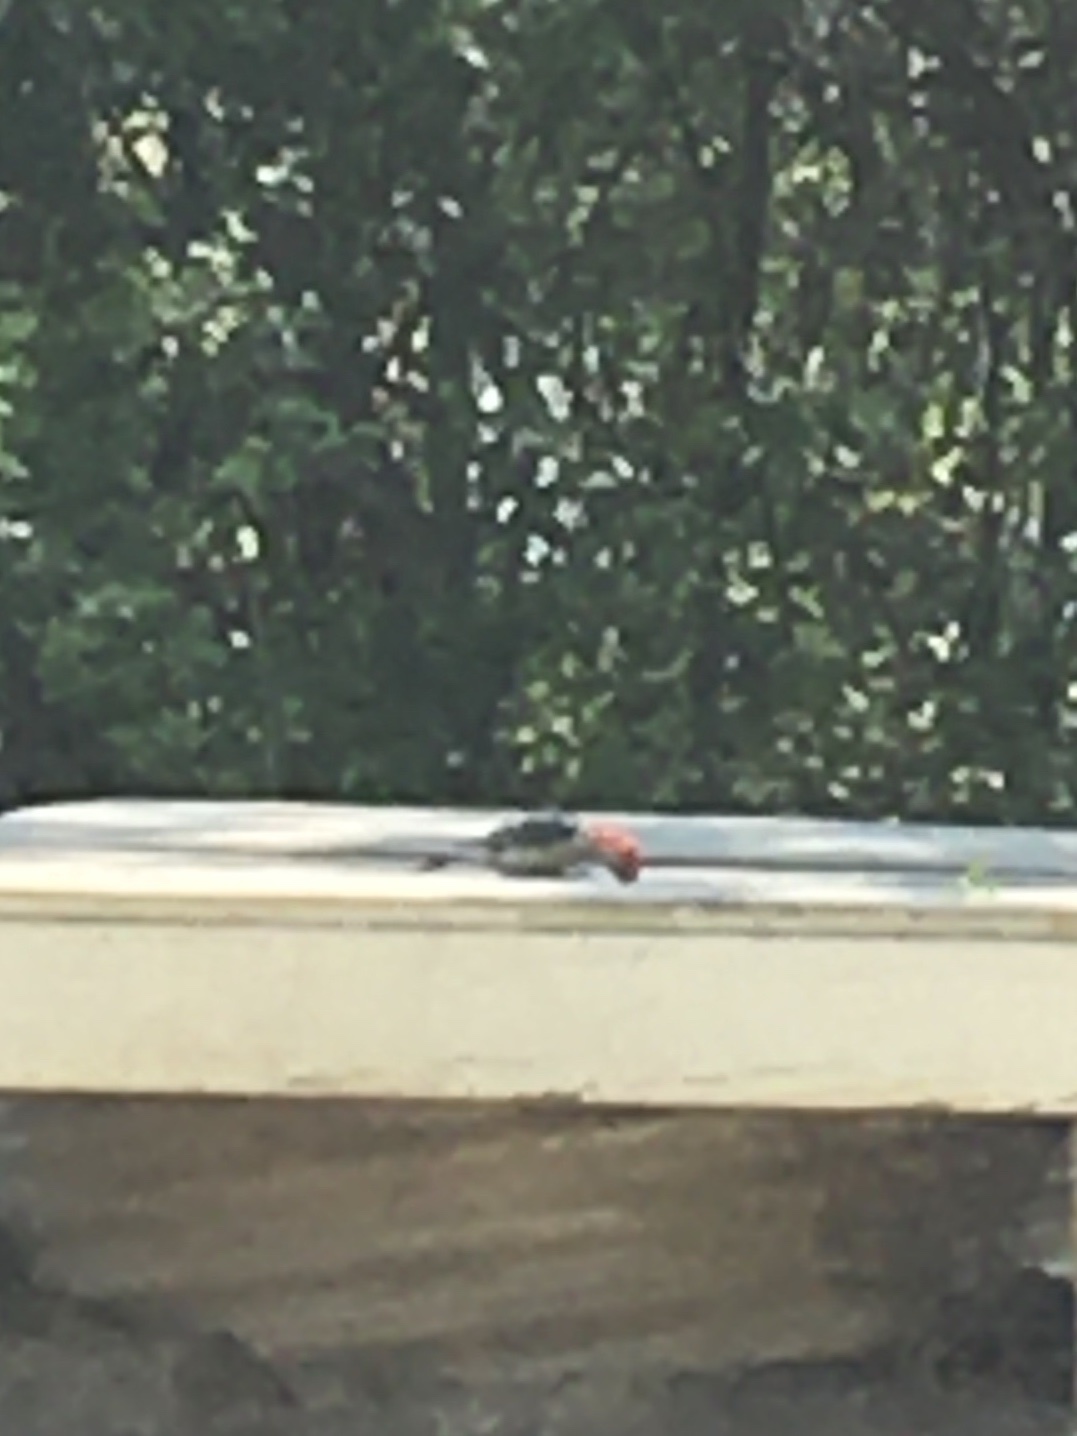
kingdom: Animalia
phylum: Chordata
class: Aves
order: Piciformes
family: Picidae
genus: Melanerpes
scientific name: Melanerpes carolinus
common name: Red-bellied woodpecker
